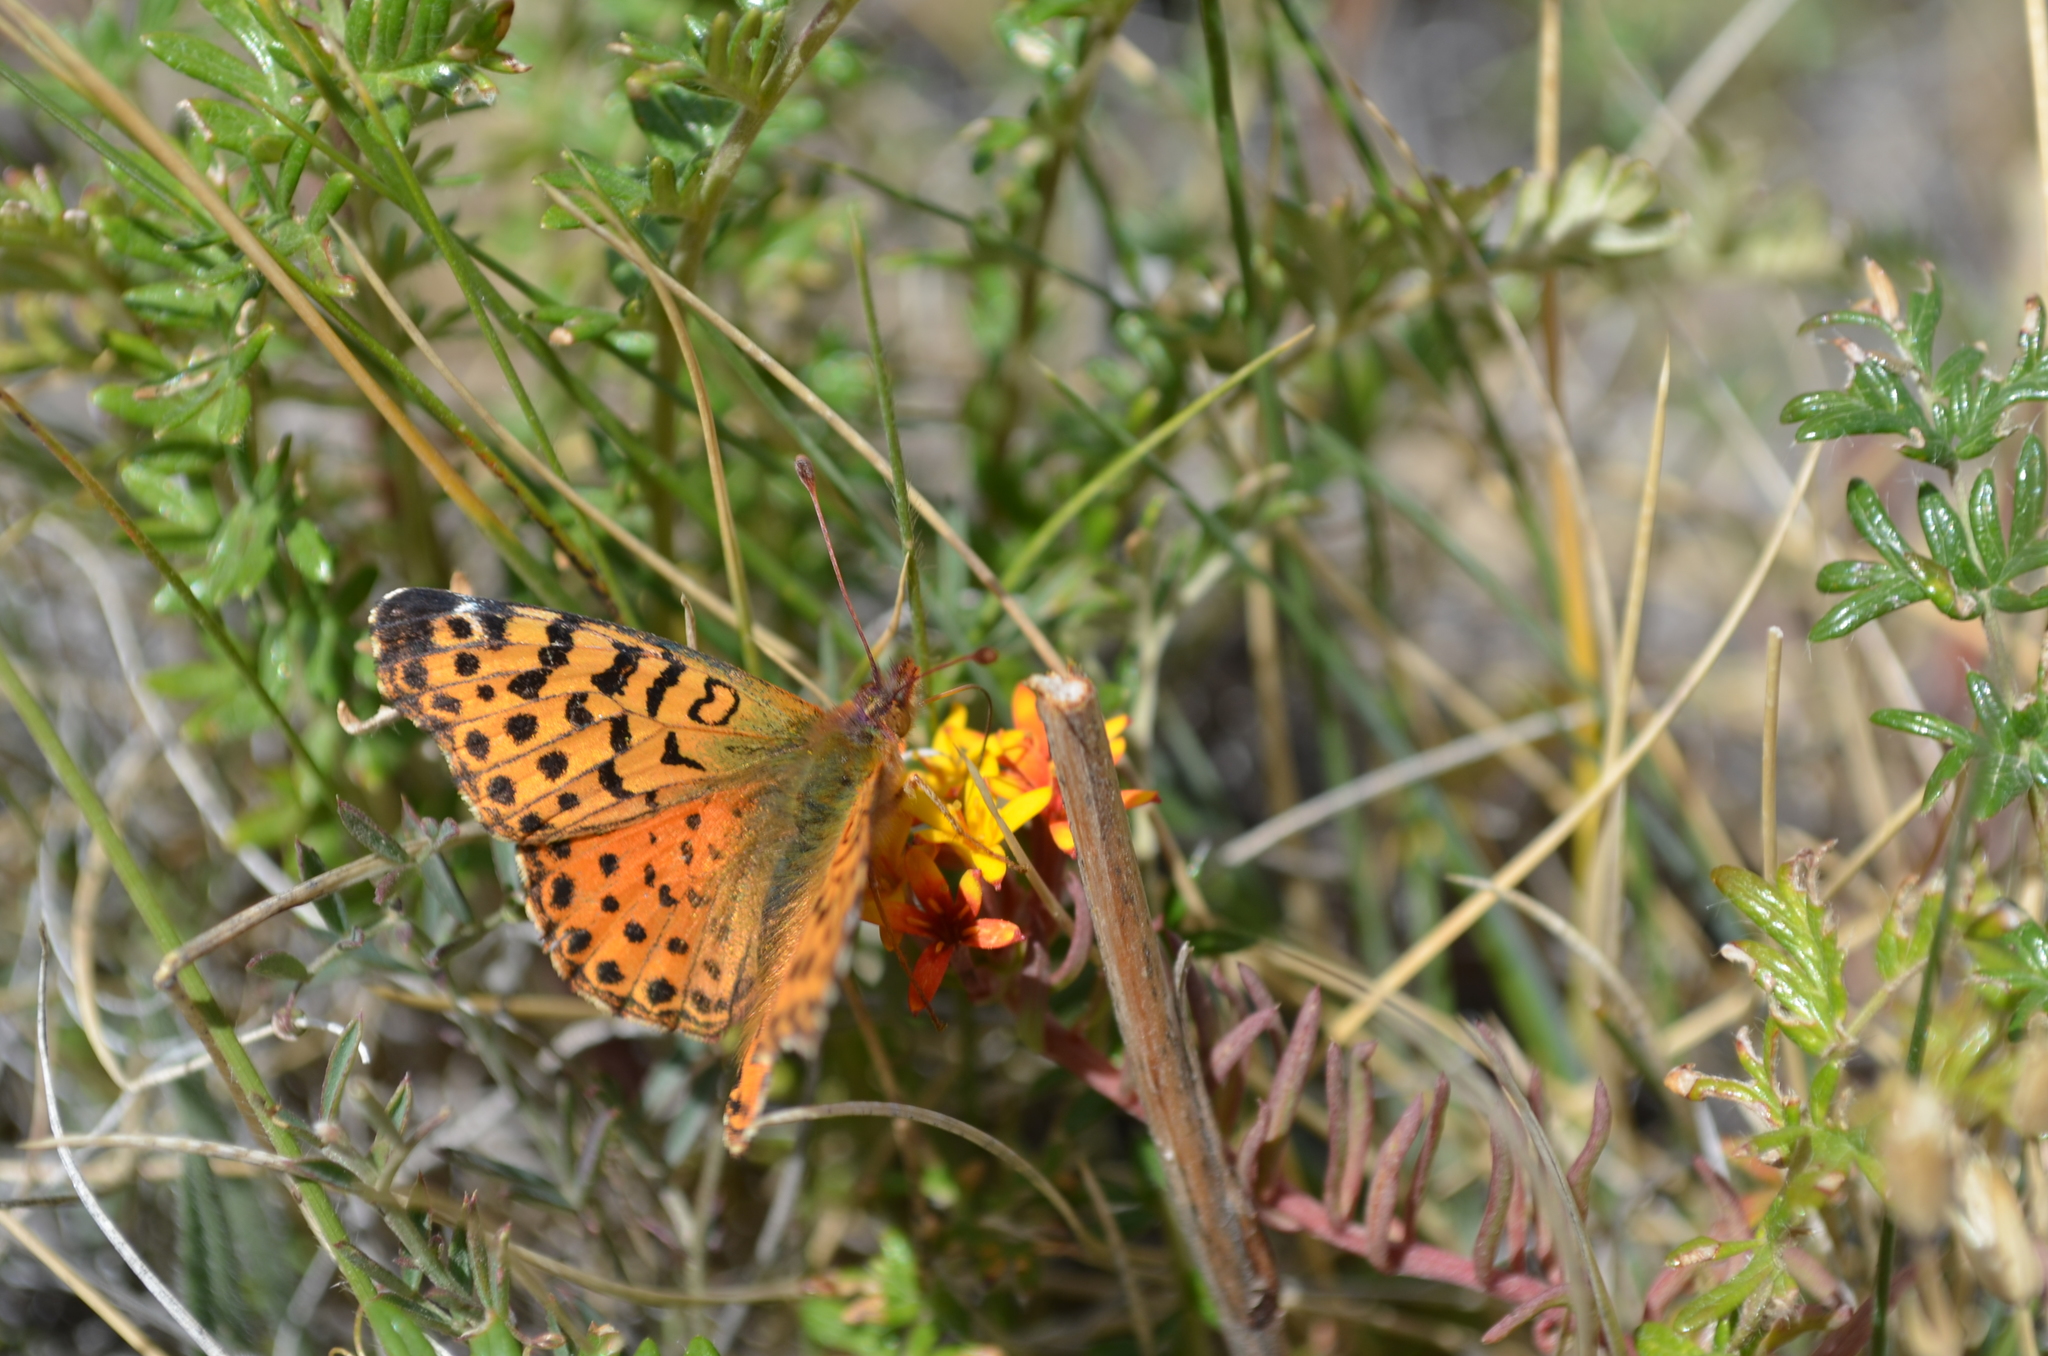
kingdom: Animalia
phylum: Arthropoda
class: Insecta
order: Lepidoptera
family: Nymphalidae
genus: Issoria
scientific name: Issoria Yramea cytheris
